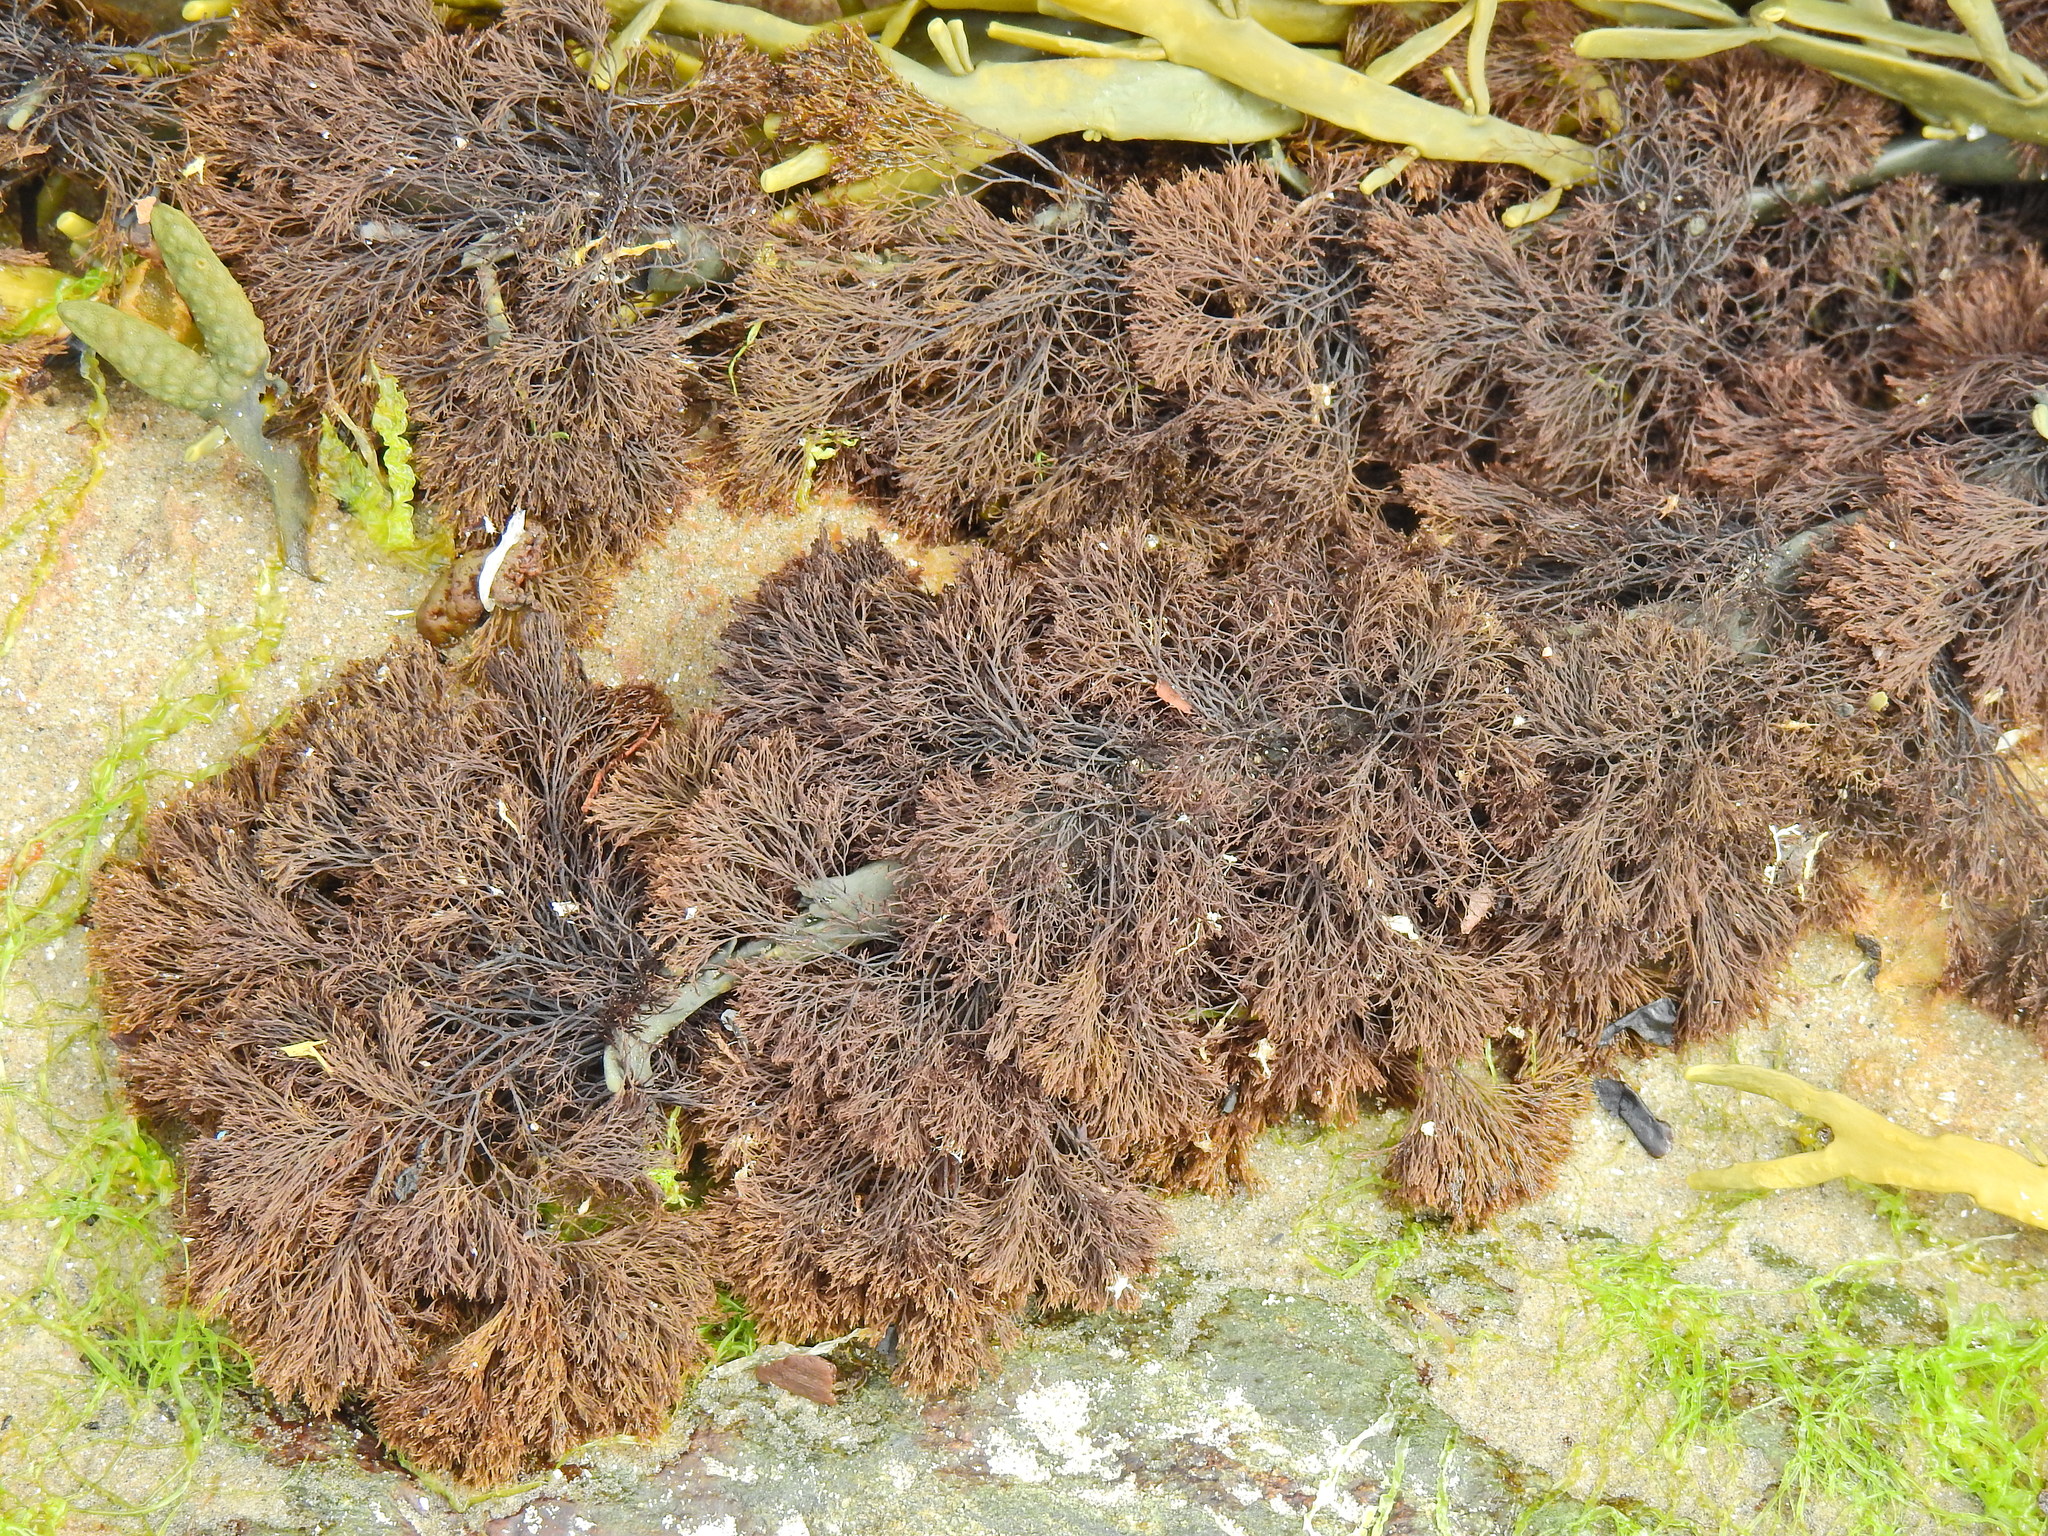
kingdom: Plantae
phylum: Rhodophyta
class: Florideophyceae
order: Ceramiales
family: Rhodomelaceae
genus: Vertebrata
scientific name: Vertebrata lanosa
